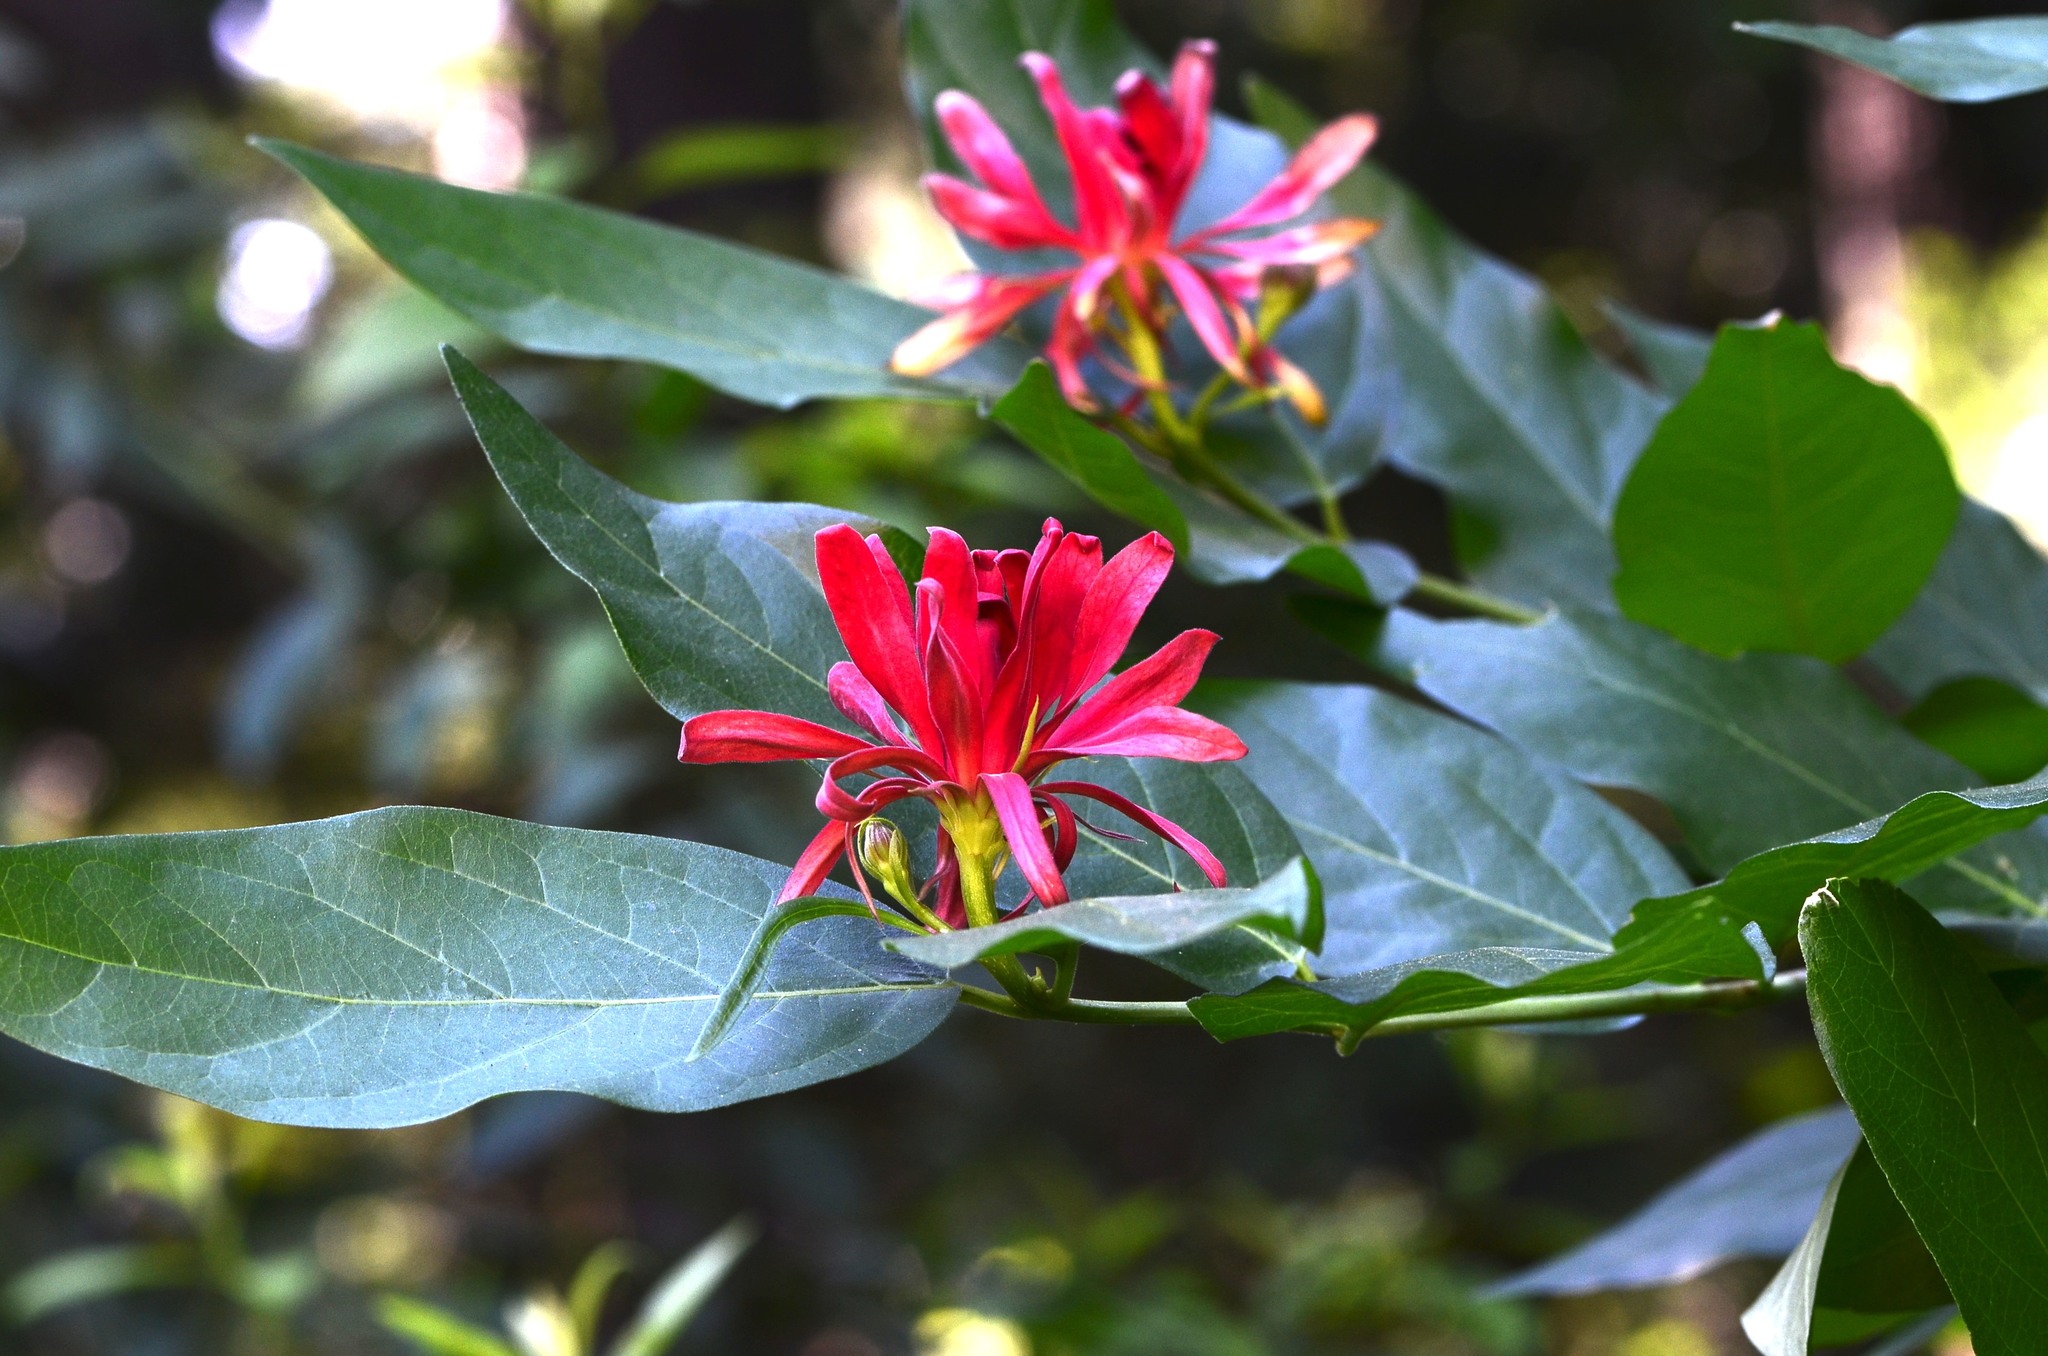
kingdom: Plantae
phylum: Tracheophyta
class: Magnoliopsida
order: Laurales
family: Calycanthaceae
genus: Calycanthus
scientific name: Calycanthus occidentalis
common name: California spicebush
